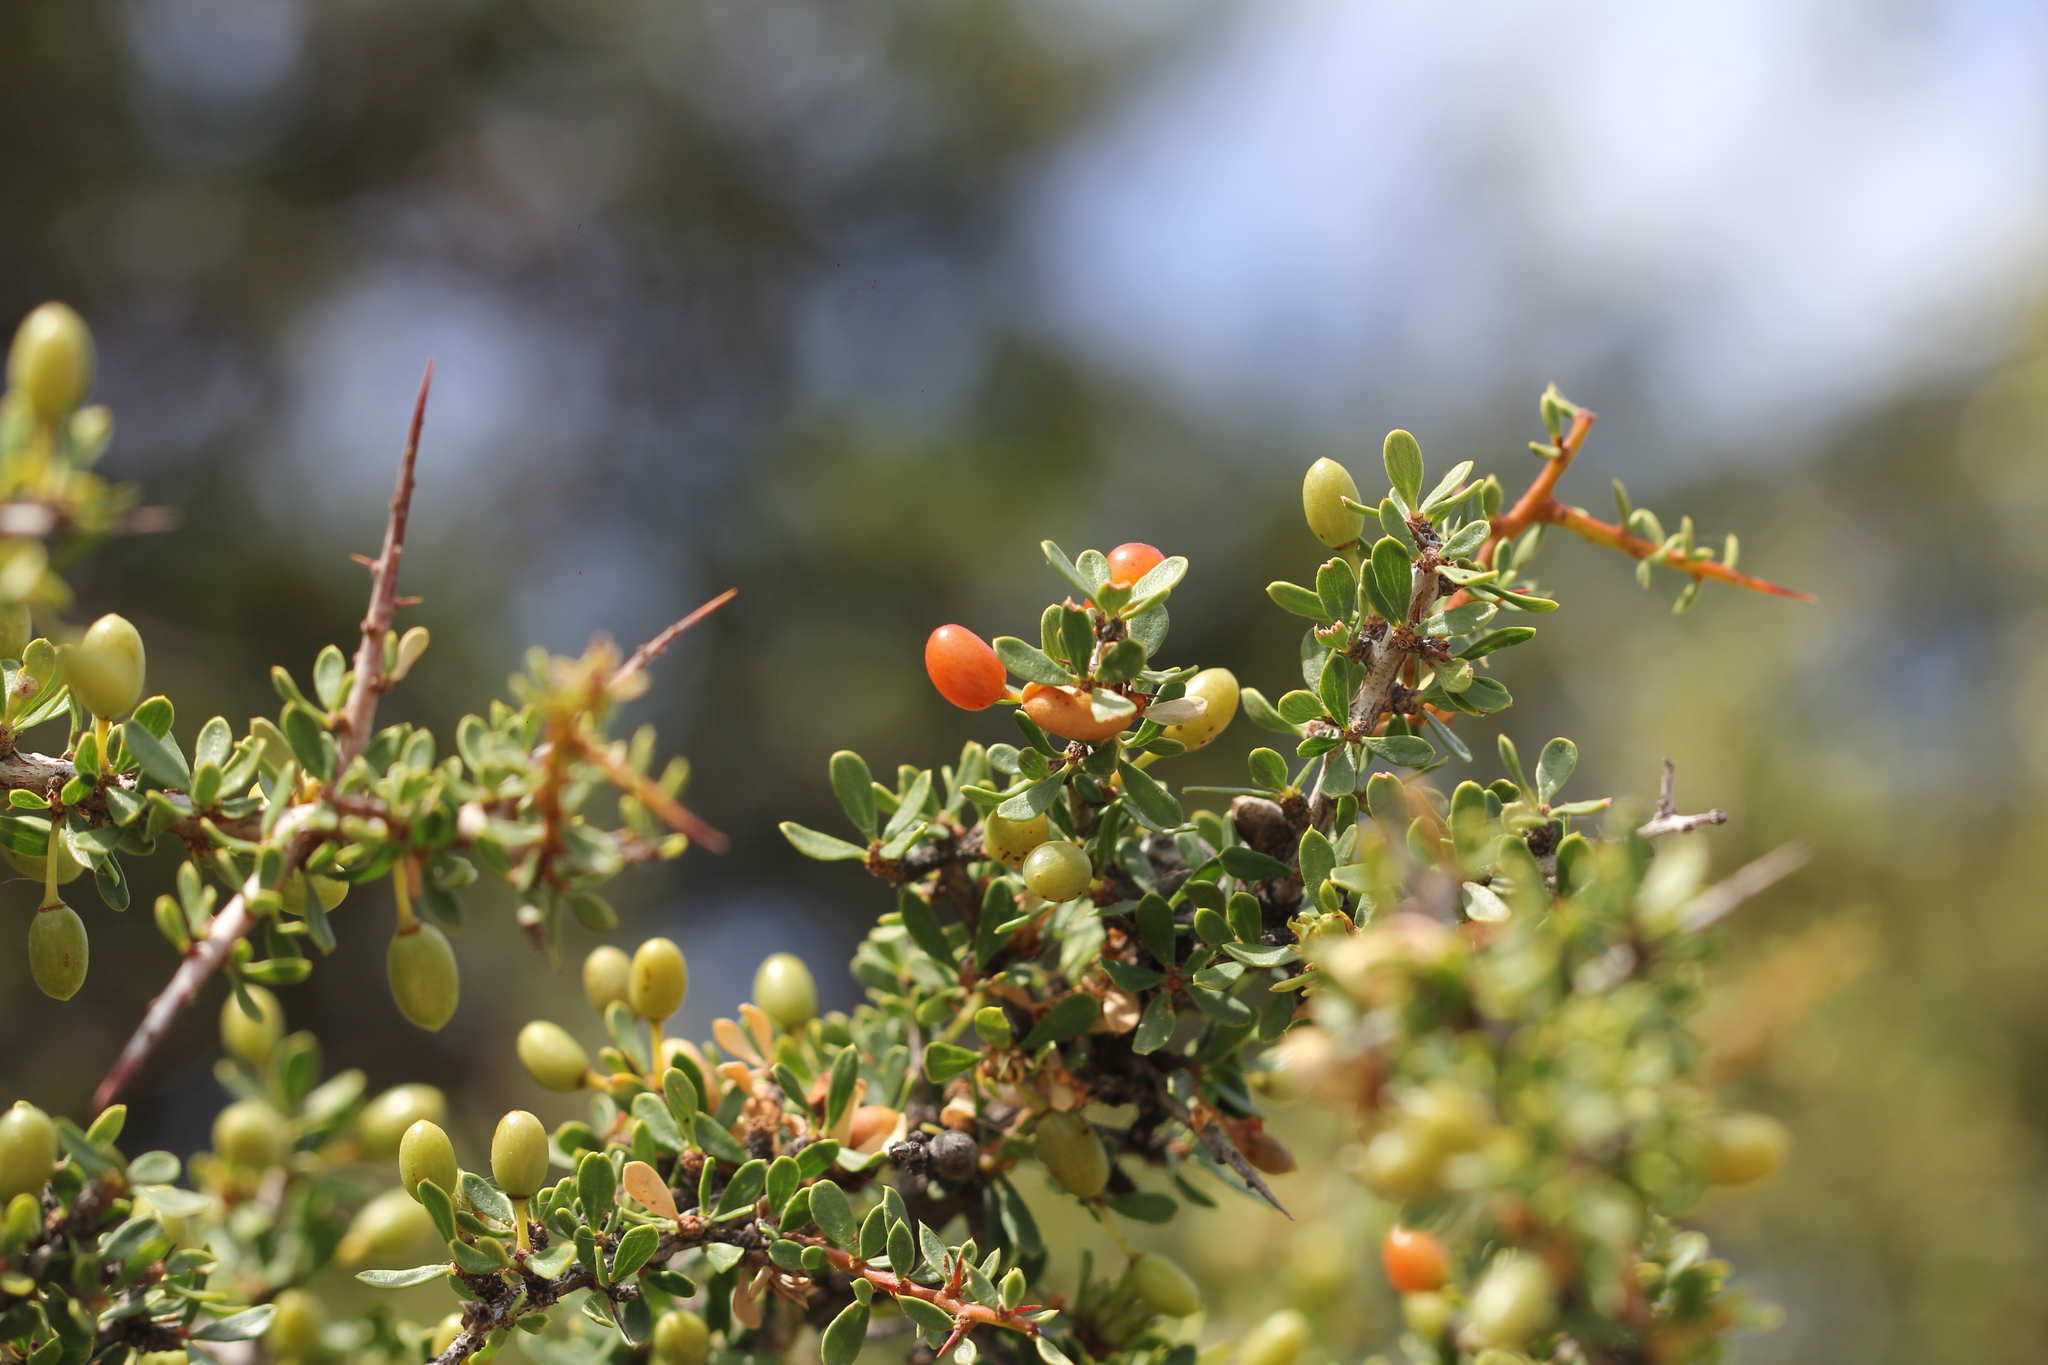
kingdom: Plantae
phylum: Tracheophyta
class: Magnoliopsida
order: Rosales
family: Rhamnaceae
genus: Condalia
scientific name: Condalia microphylla
